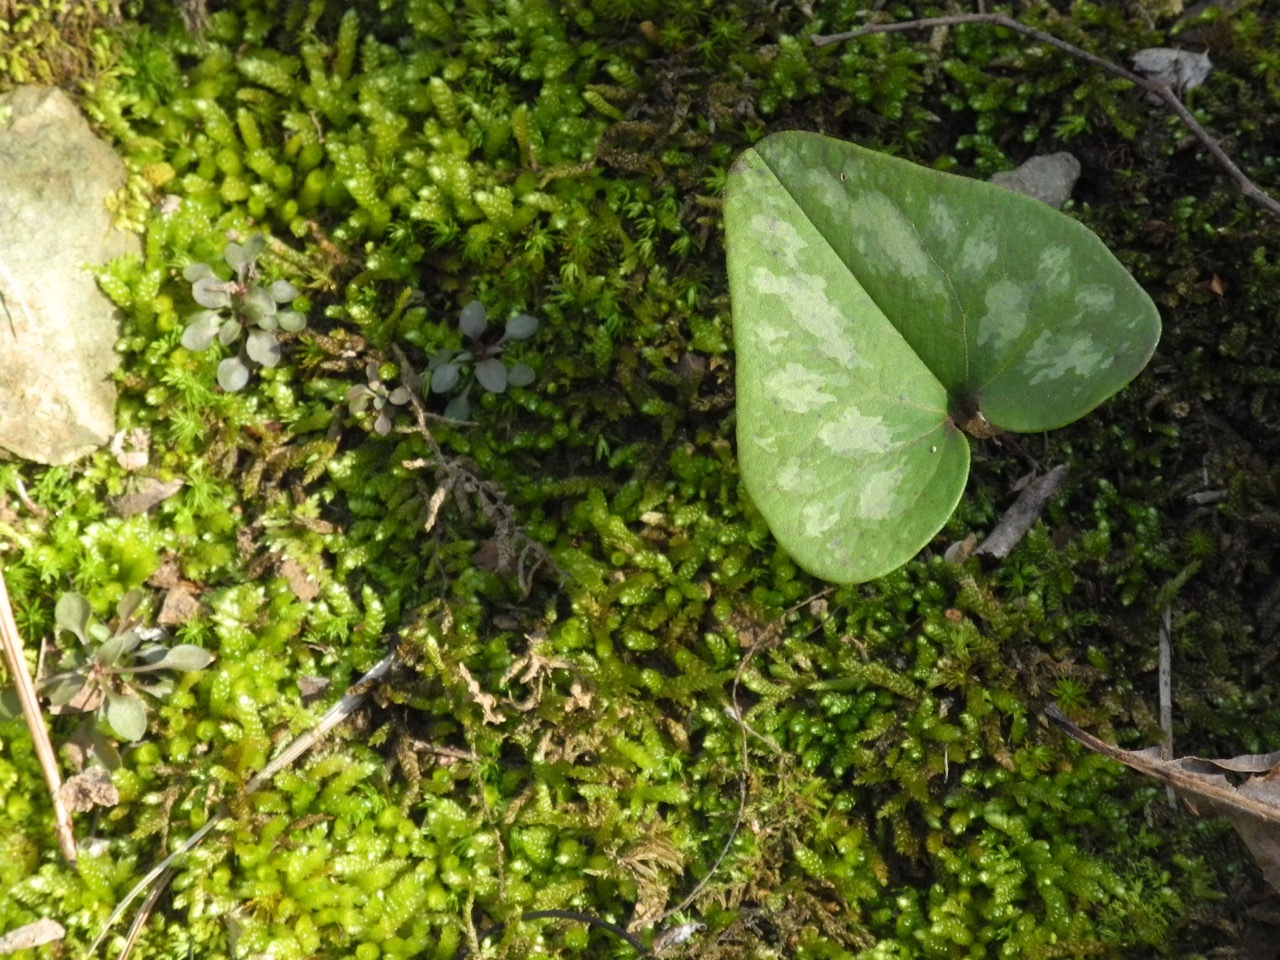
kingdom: Plantae
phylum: Tracheophyta
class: Magnoliopsida
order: Piperales
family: Aristolochiaceae
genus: Hexastylis
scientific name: Hexastylis arifolia
